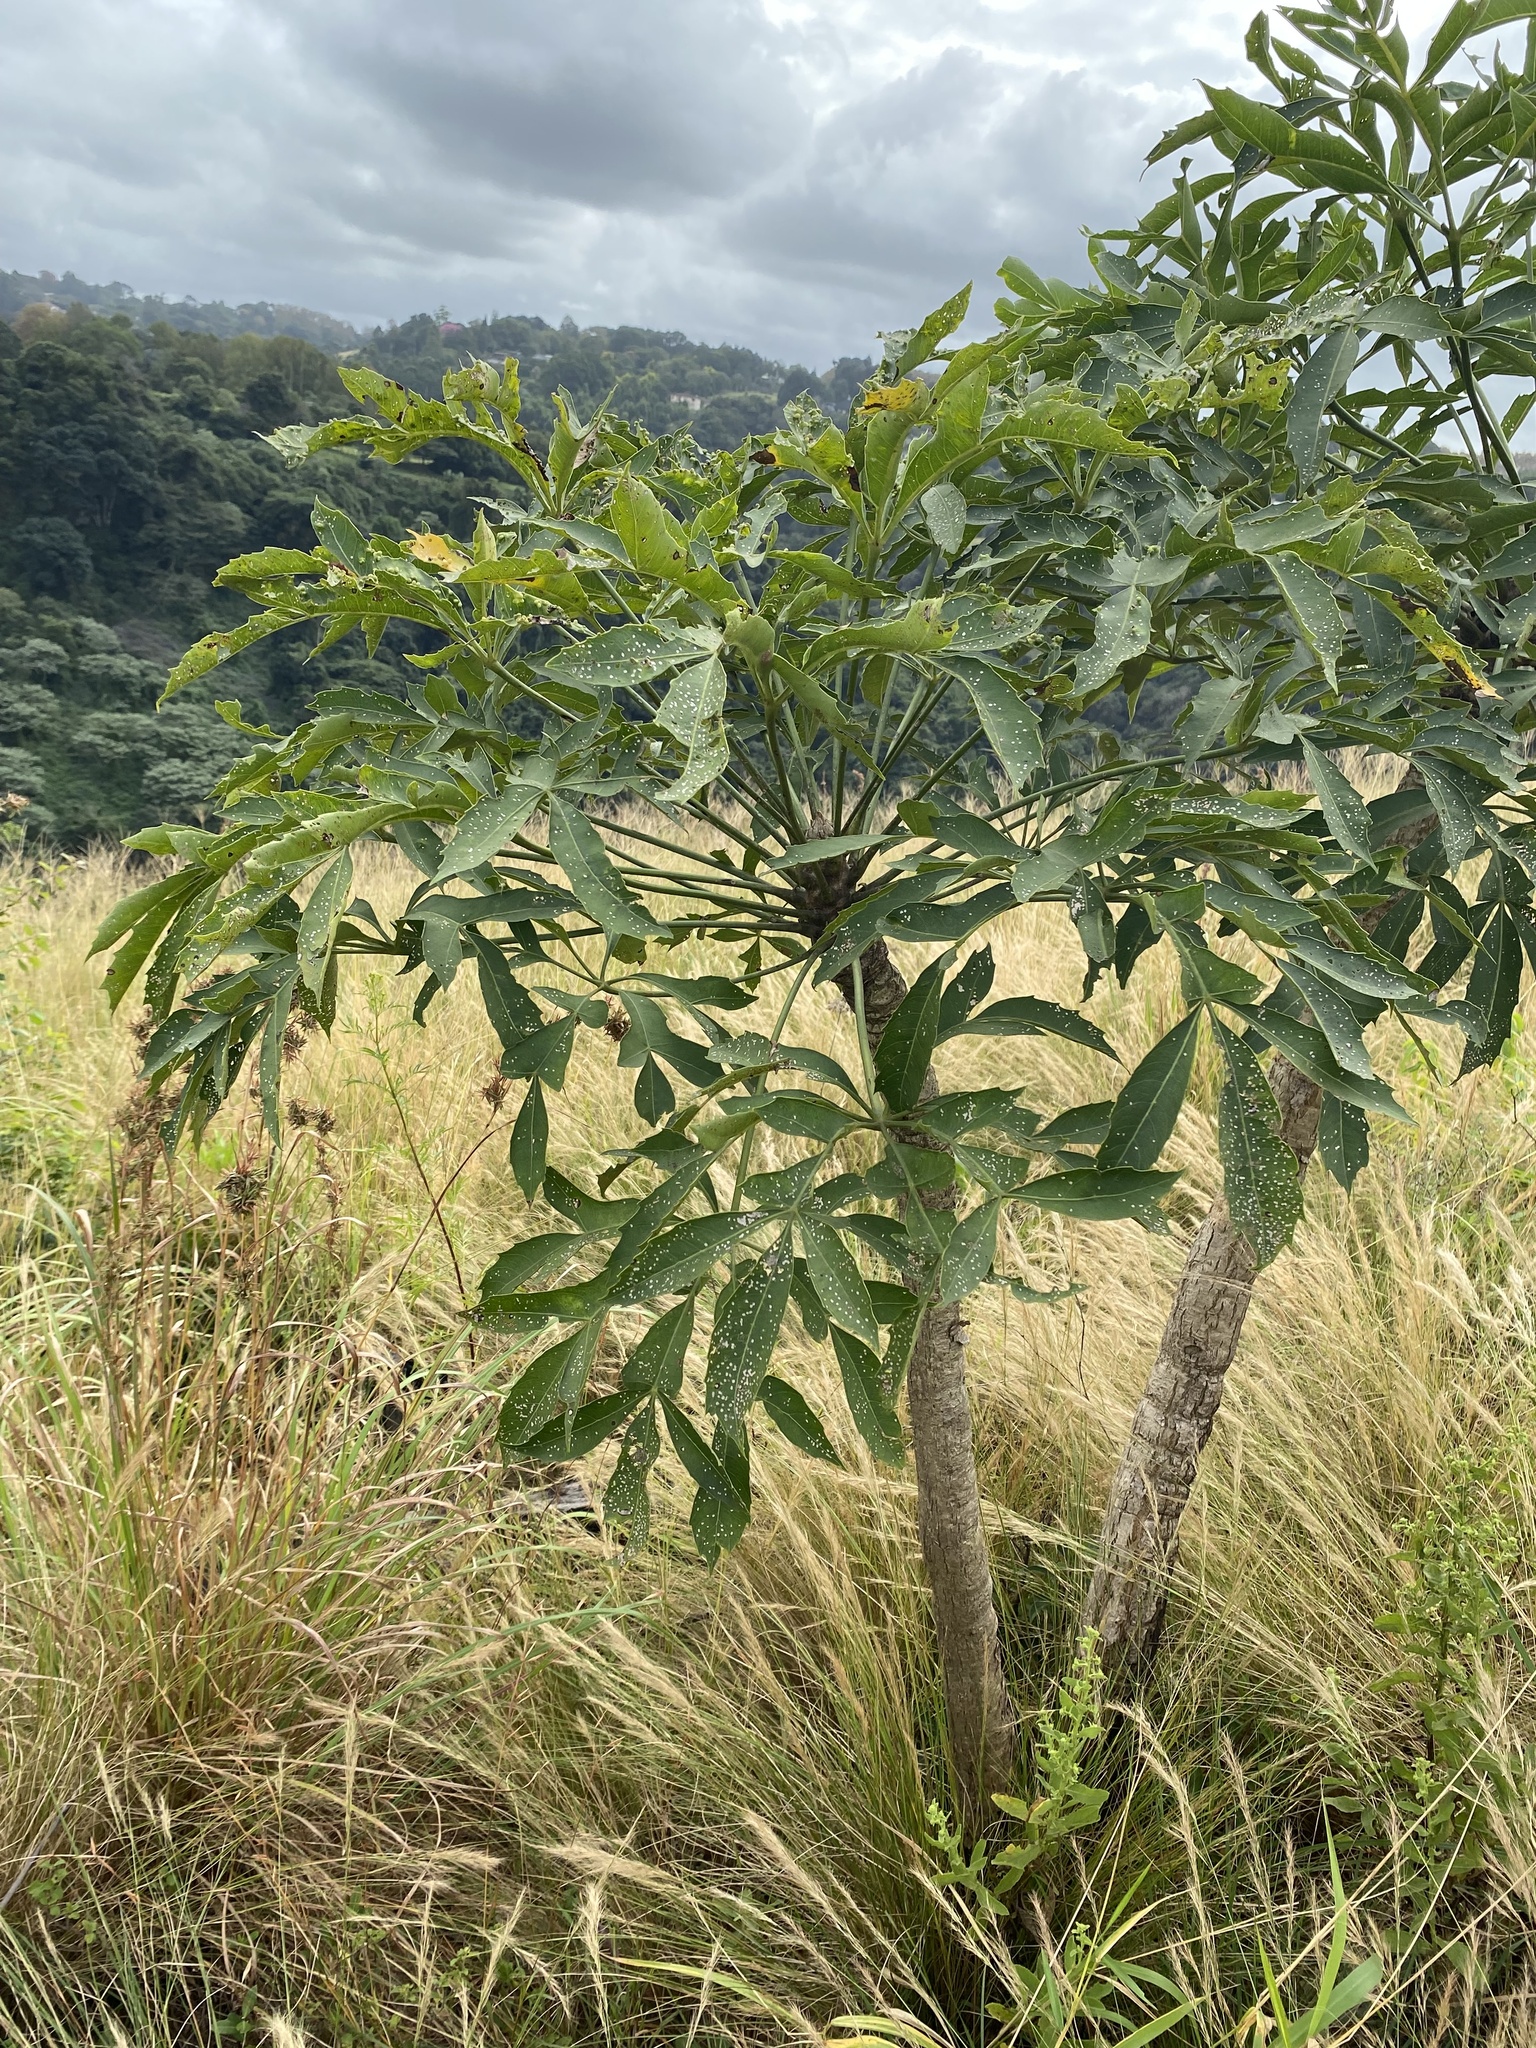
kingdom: Plantae
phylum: Tracheophyta
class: Magnoliopsida
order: Apiales
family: Araliaceae
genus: Cussonia
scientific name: Cussonia spicata
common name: Common cabbagetree
